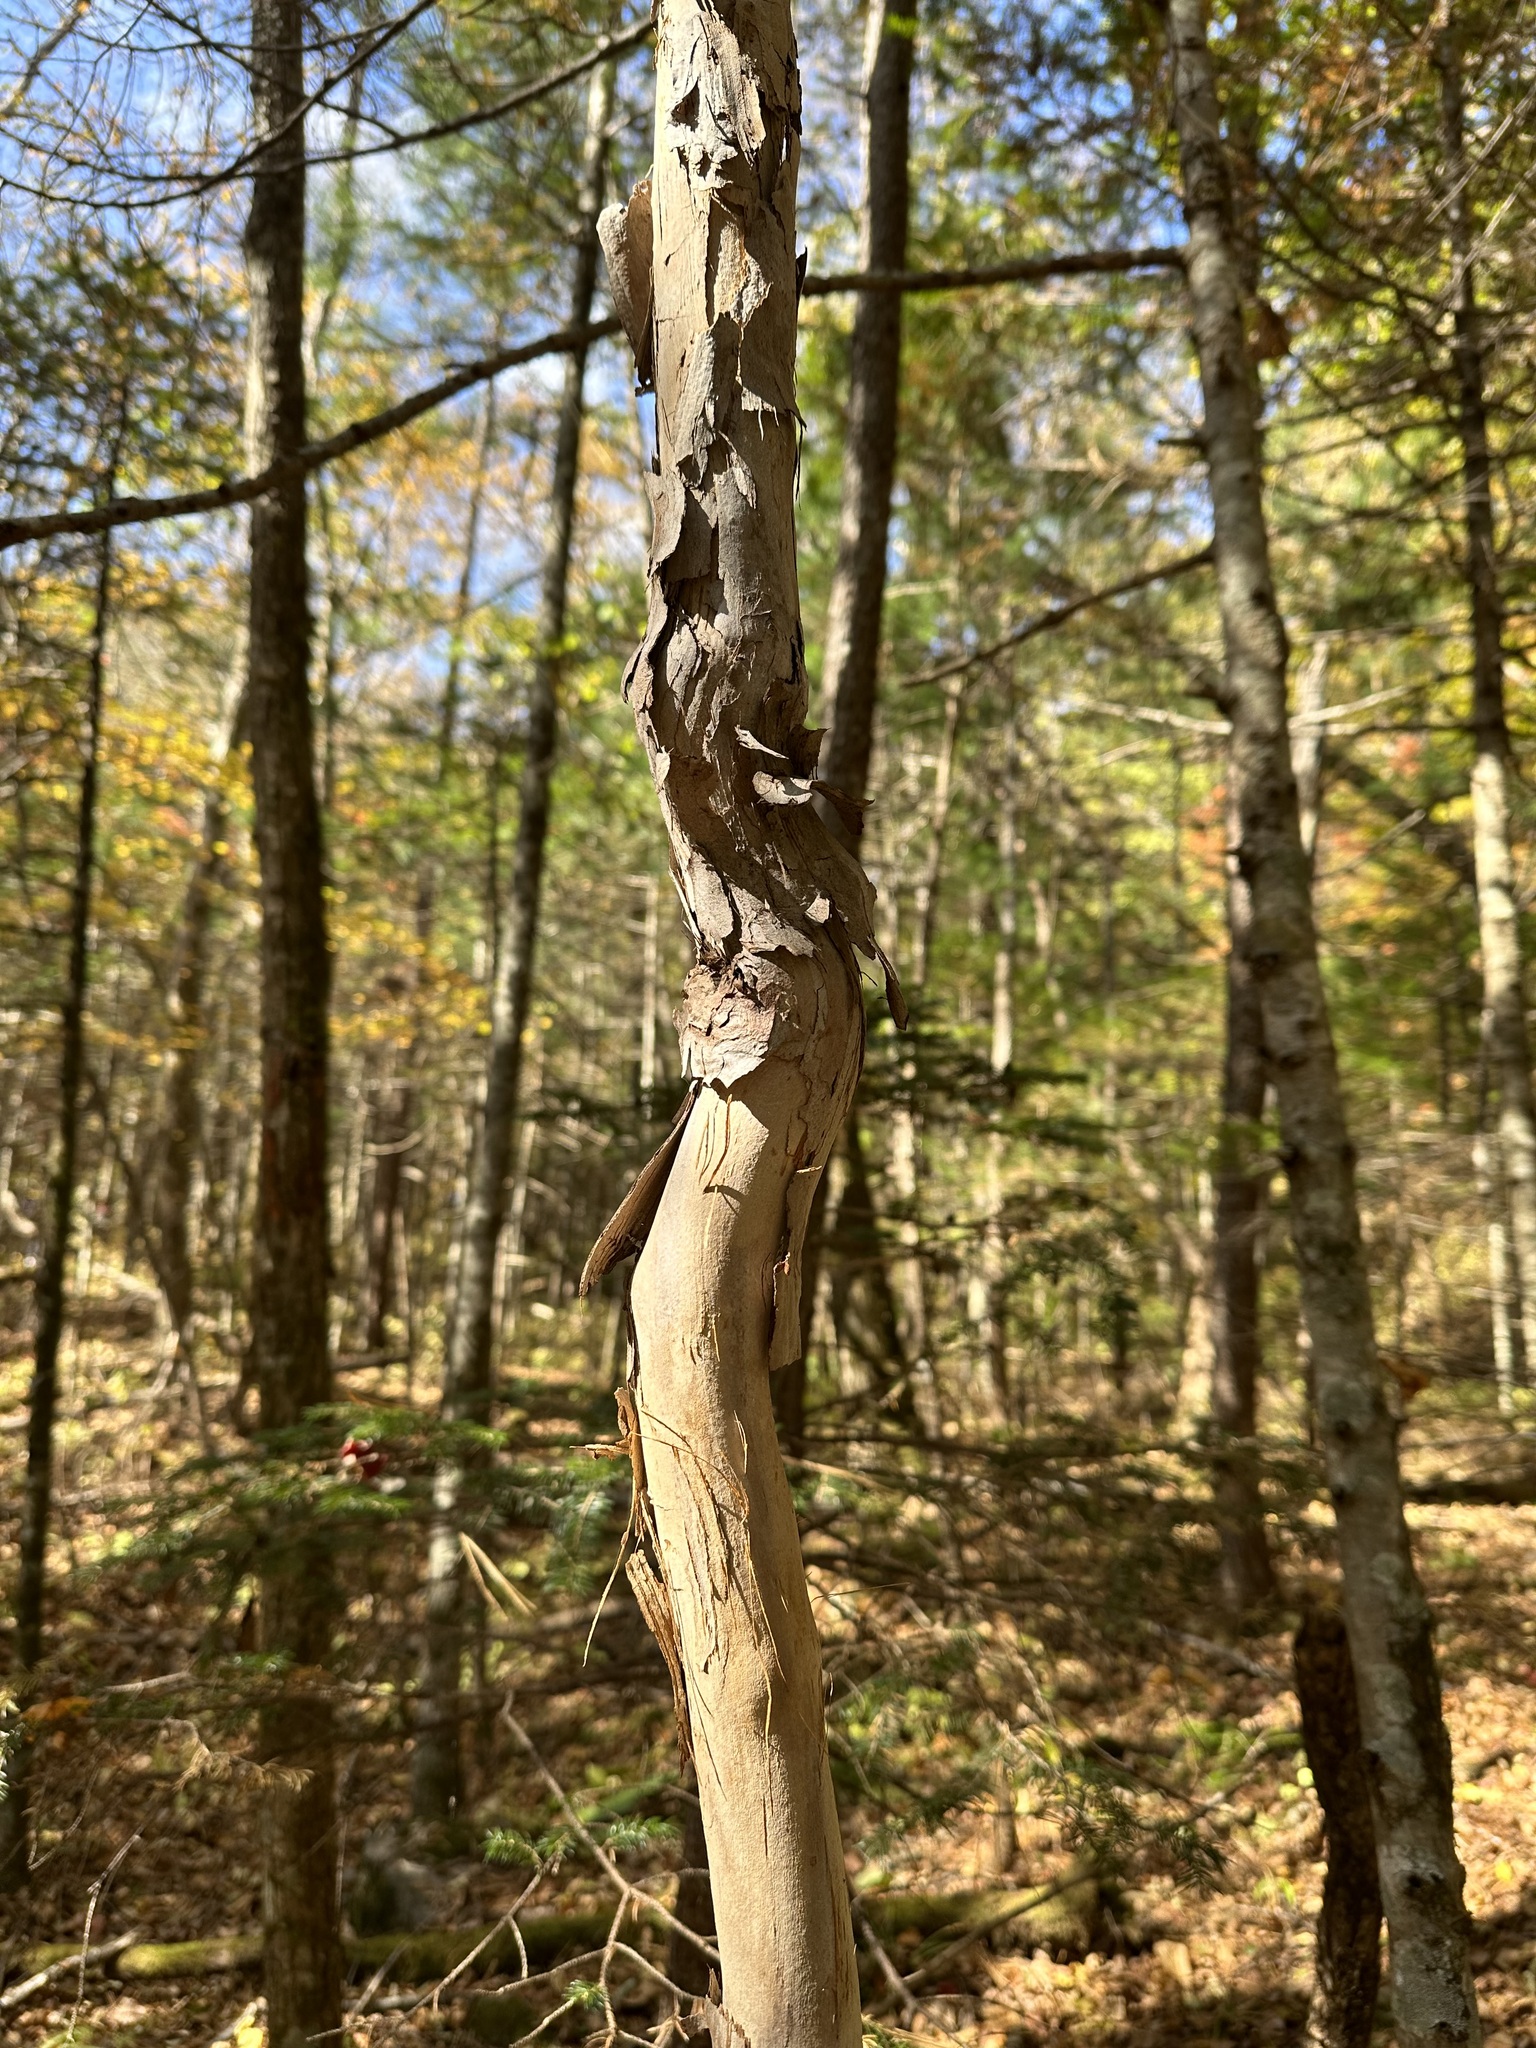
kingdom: Plantae
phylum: Tracheophyta
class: Magnoliopsida
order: Ericales
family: Actinidiaceae
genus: Actinidia
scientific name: Actinidia arguta
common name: Tara vine
